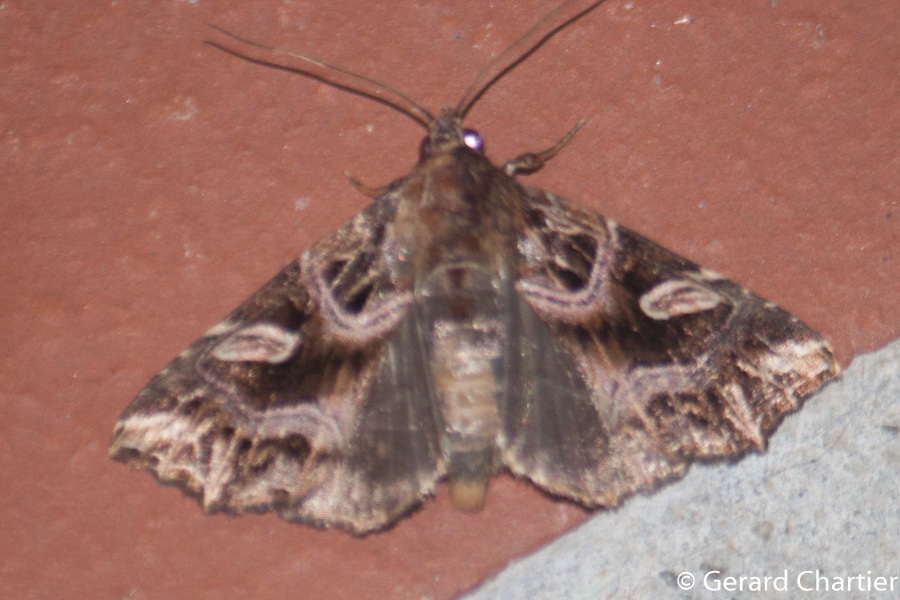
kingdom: Animalia
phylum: Arthropoda
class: Insecta
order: Lepidoptera
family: Noctuidae
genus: Callopistria
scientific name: Callopistria exotica
